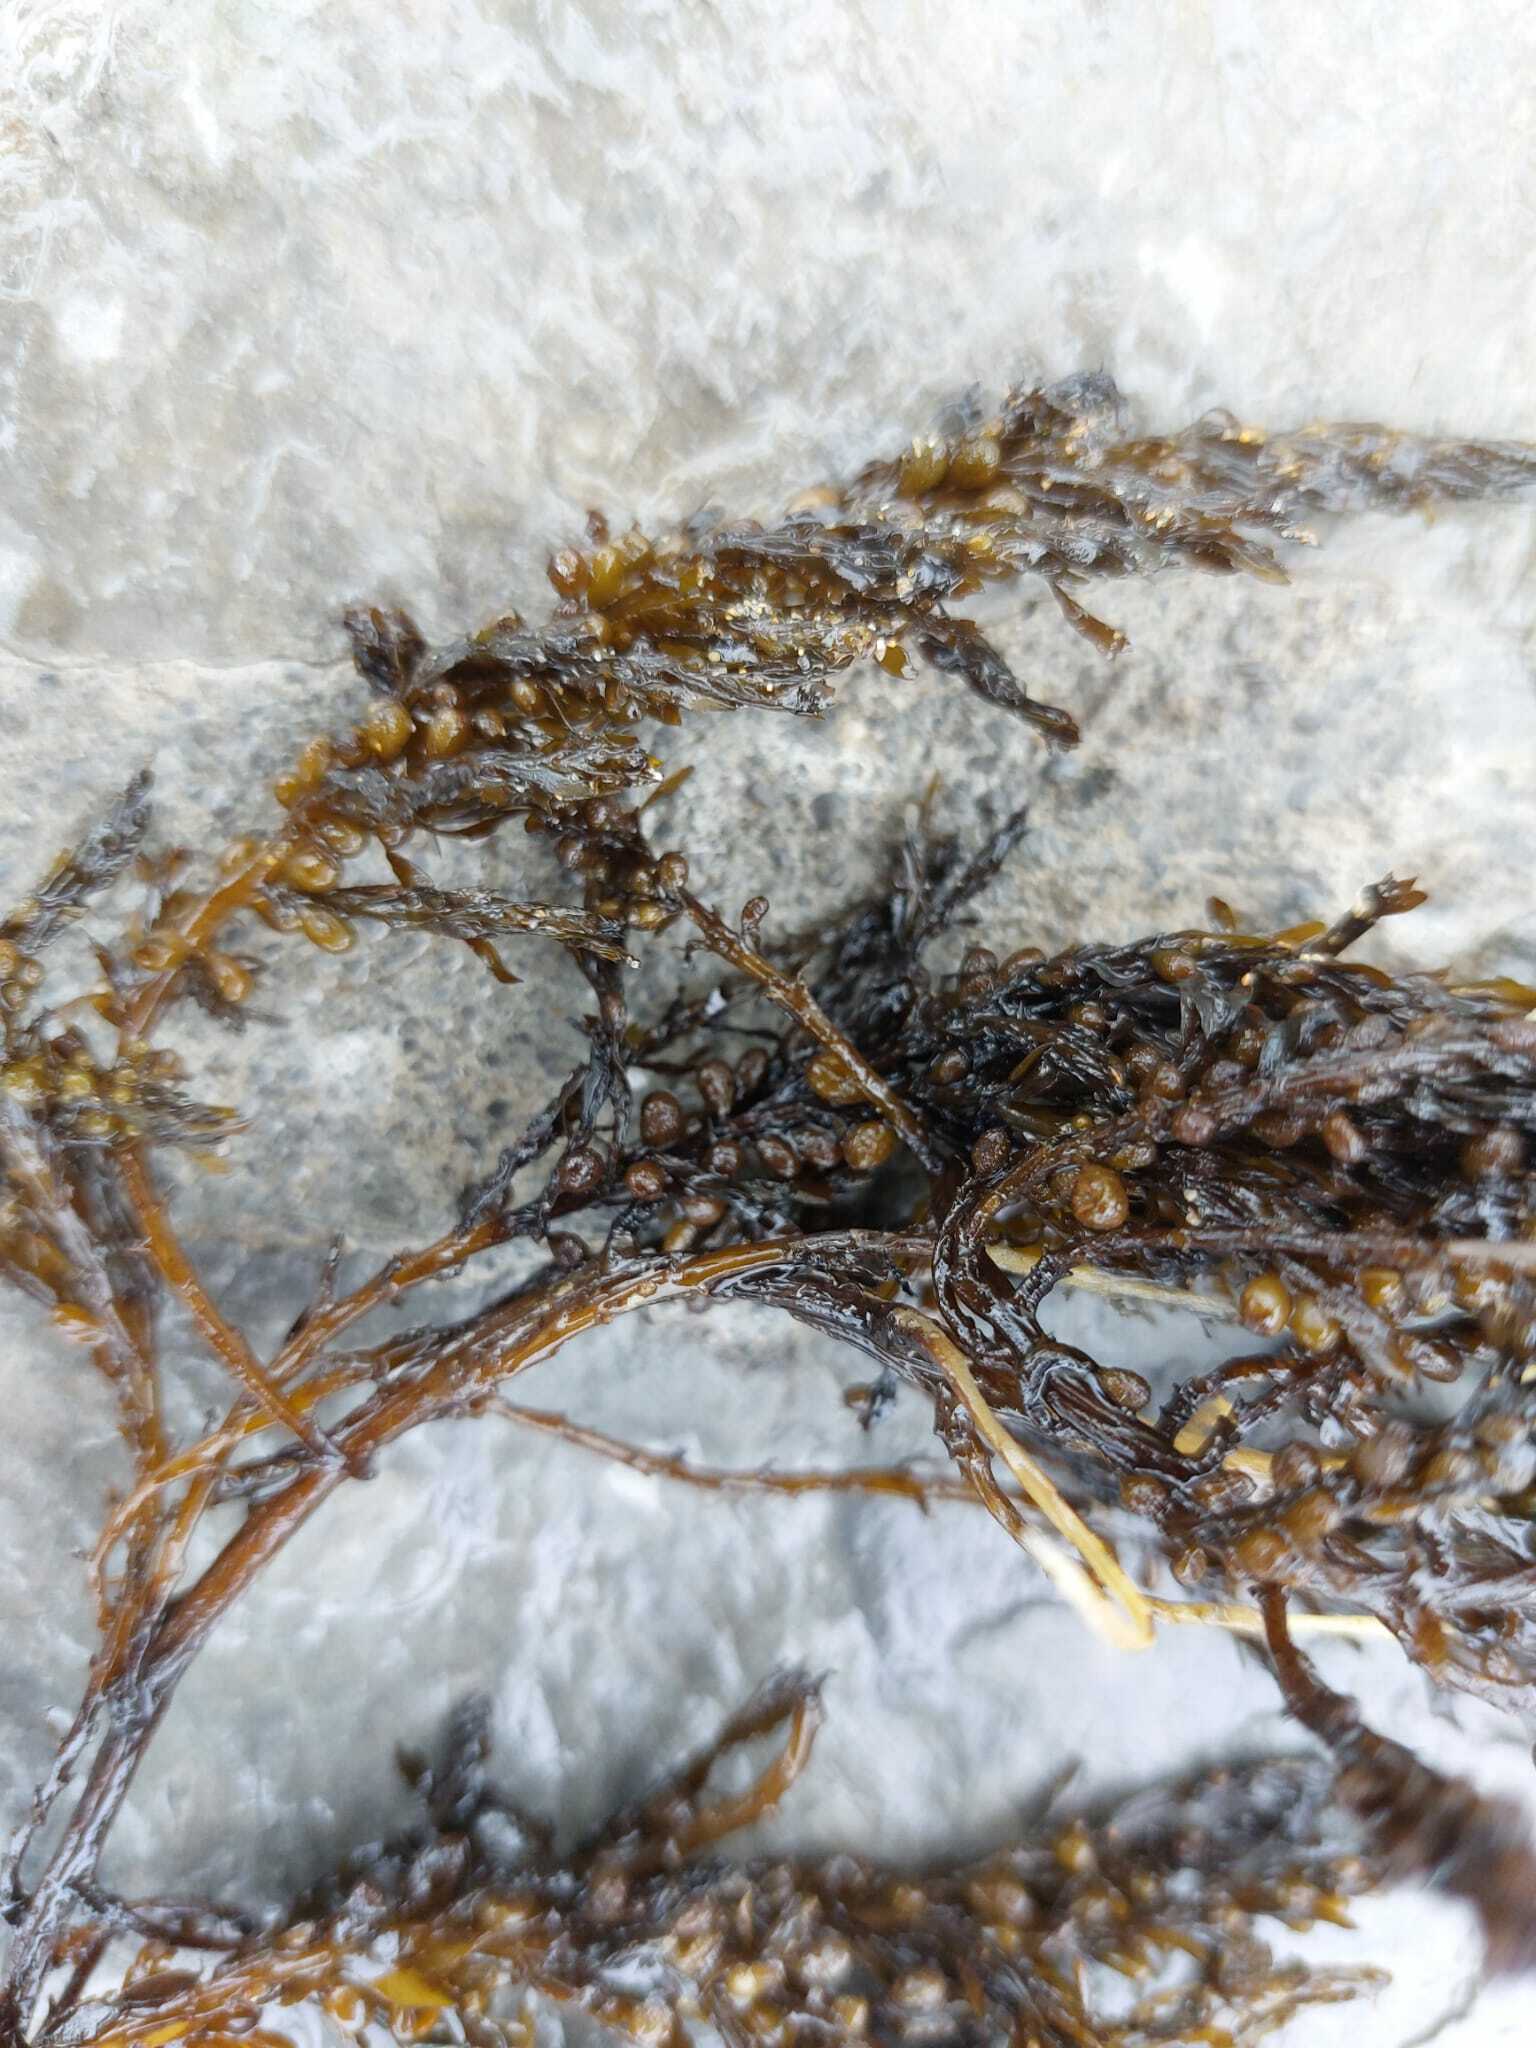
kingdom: Chromista
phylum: Ochrophyta
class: Phaeophyceae
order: Fucales
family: Sargassaceae
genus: Sargassum
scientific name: Sargassum muticum
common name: Japweed
